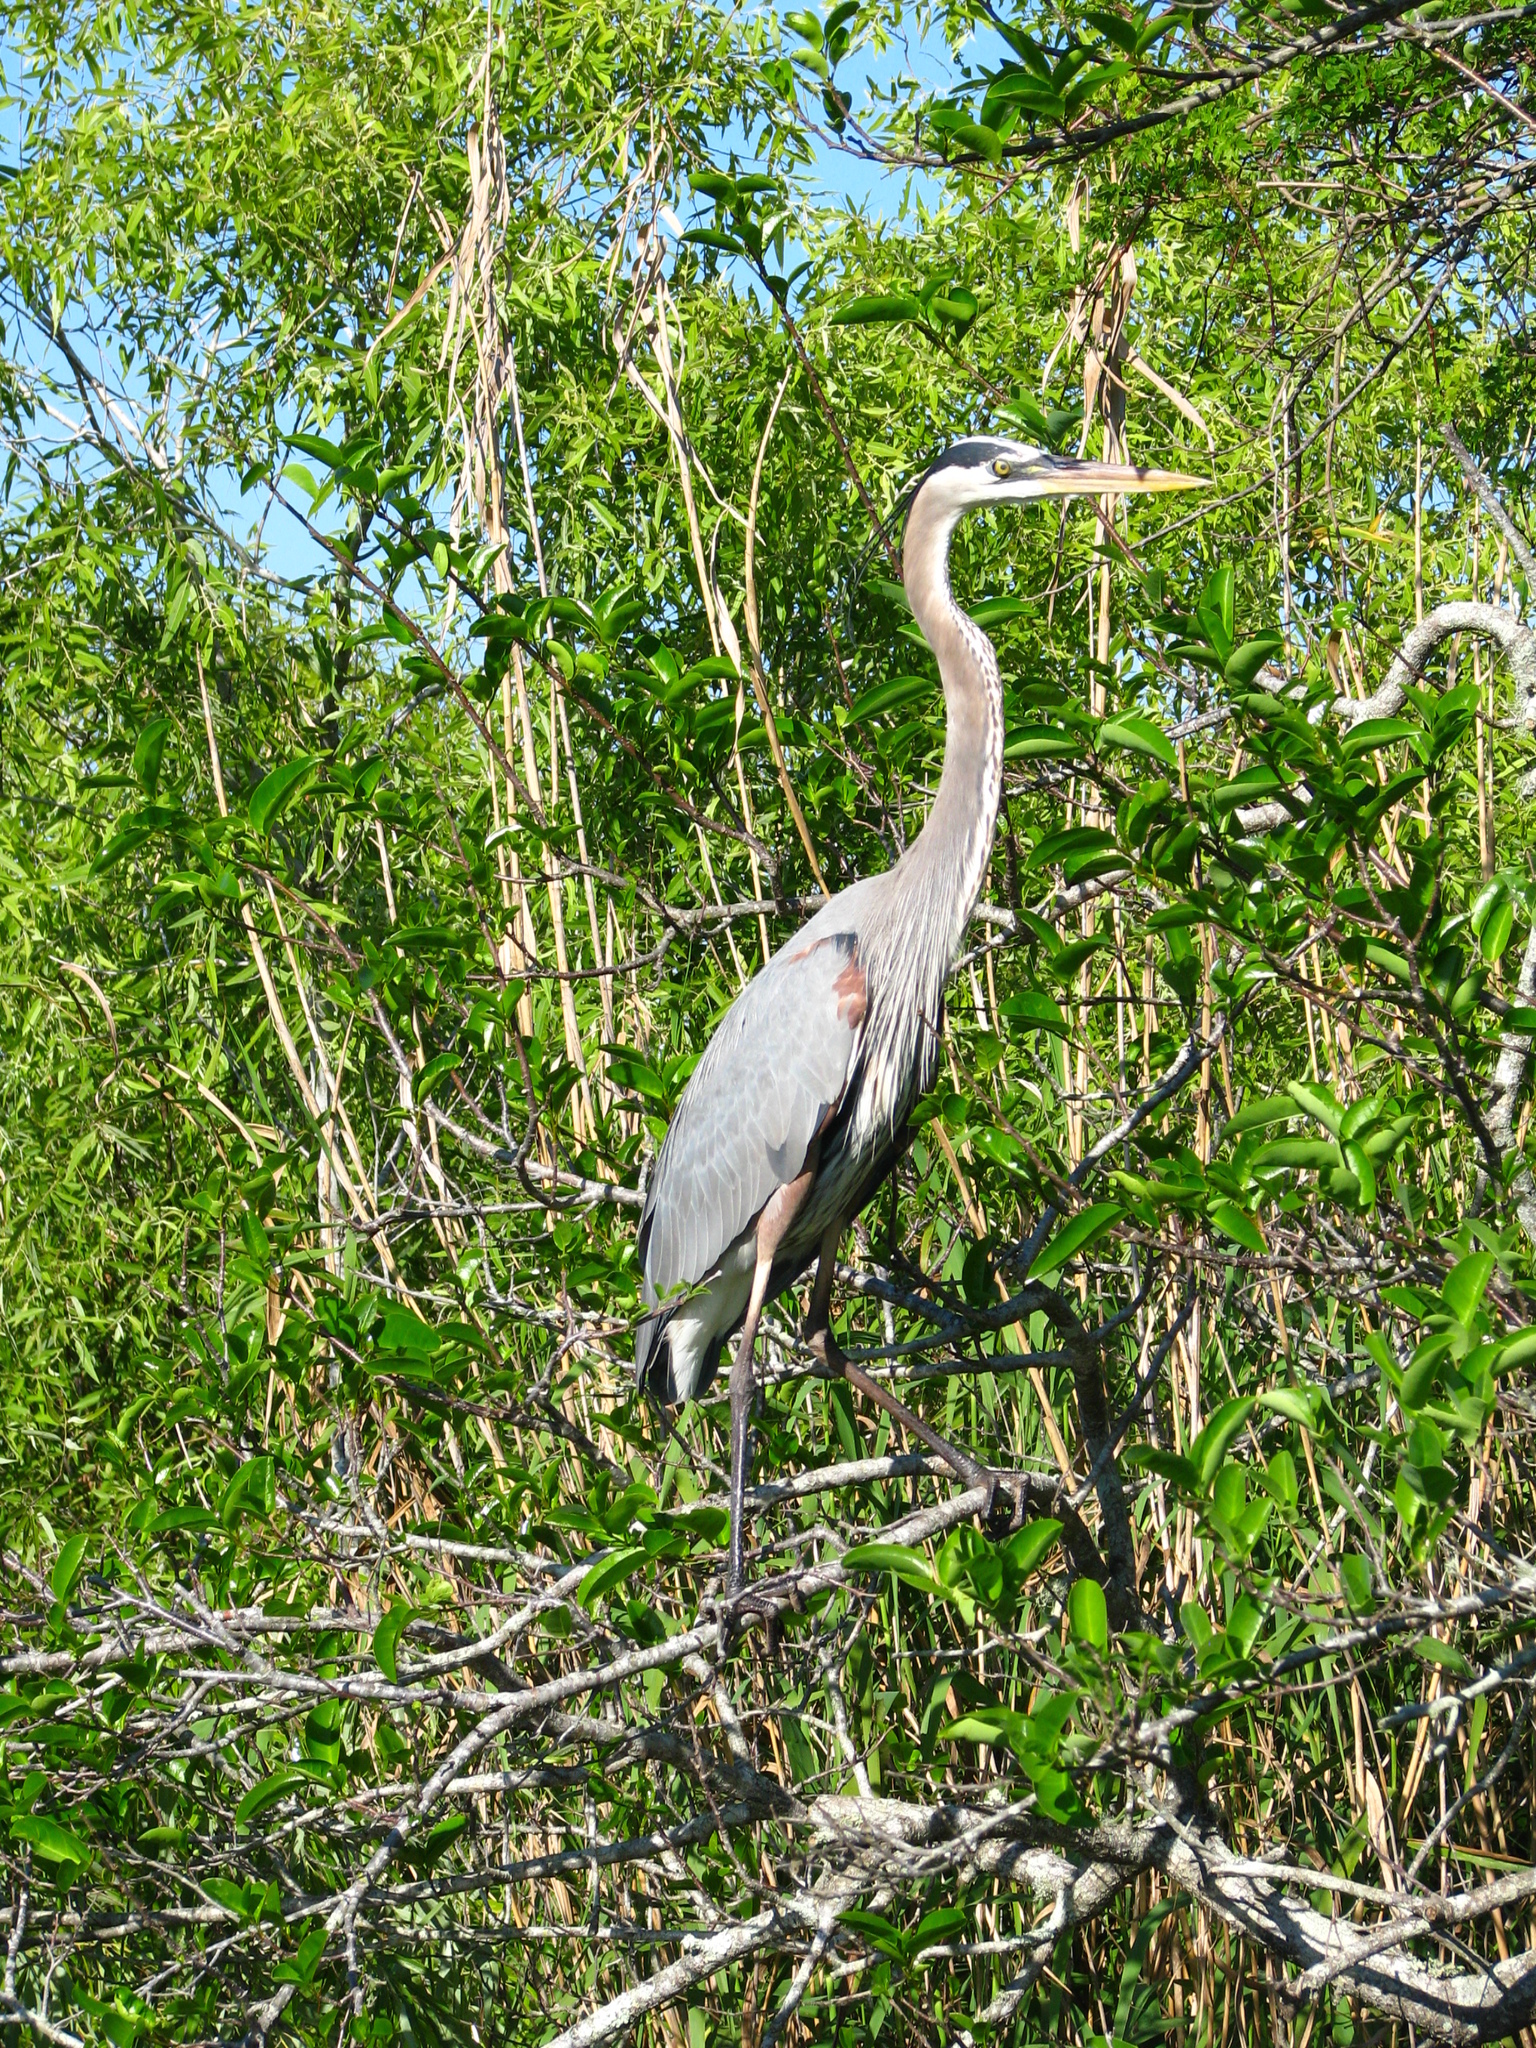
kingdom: Animalia
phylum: Chordata
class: Aves
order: Pelecaniformes
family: Ardeidae
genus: Ardea
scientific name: Ardea herodias
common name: Great blue heron
